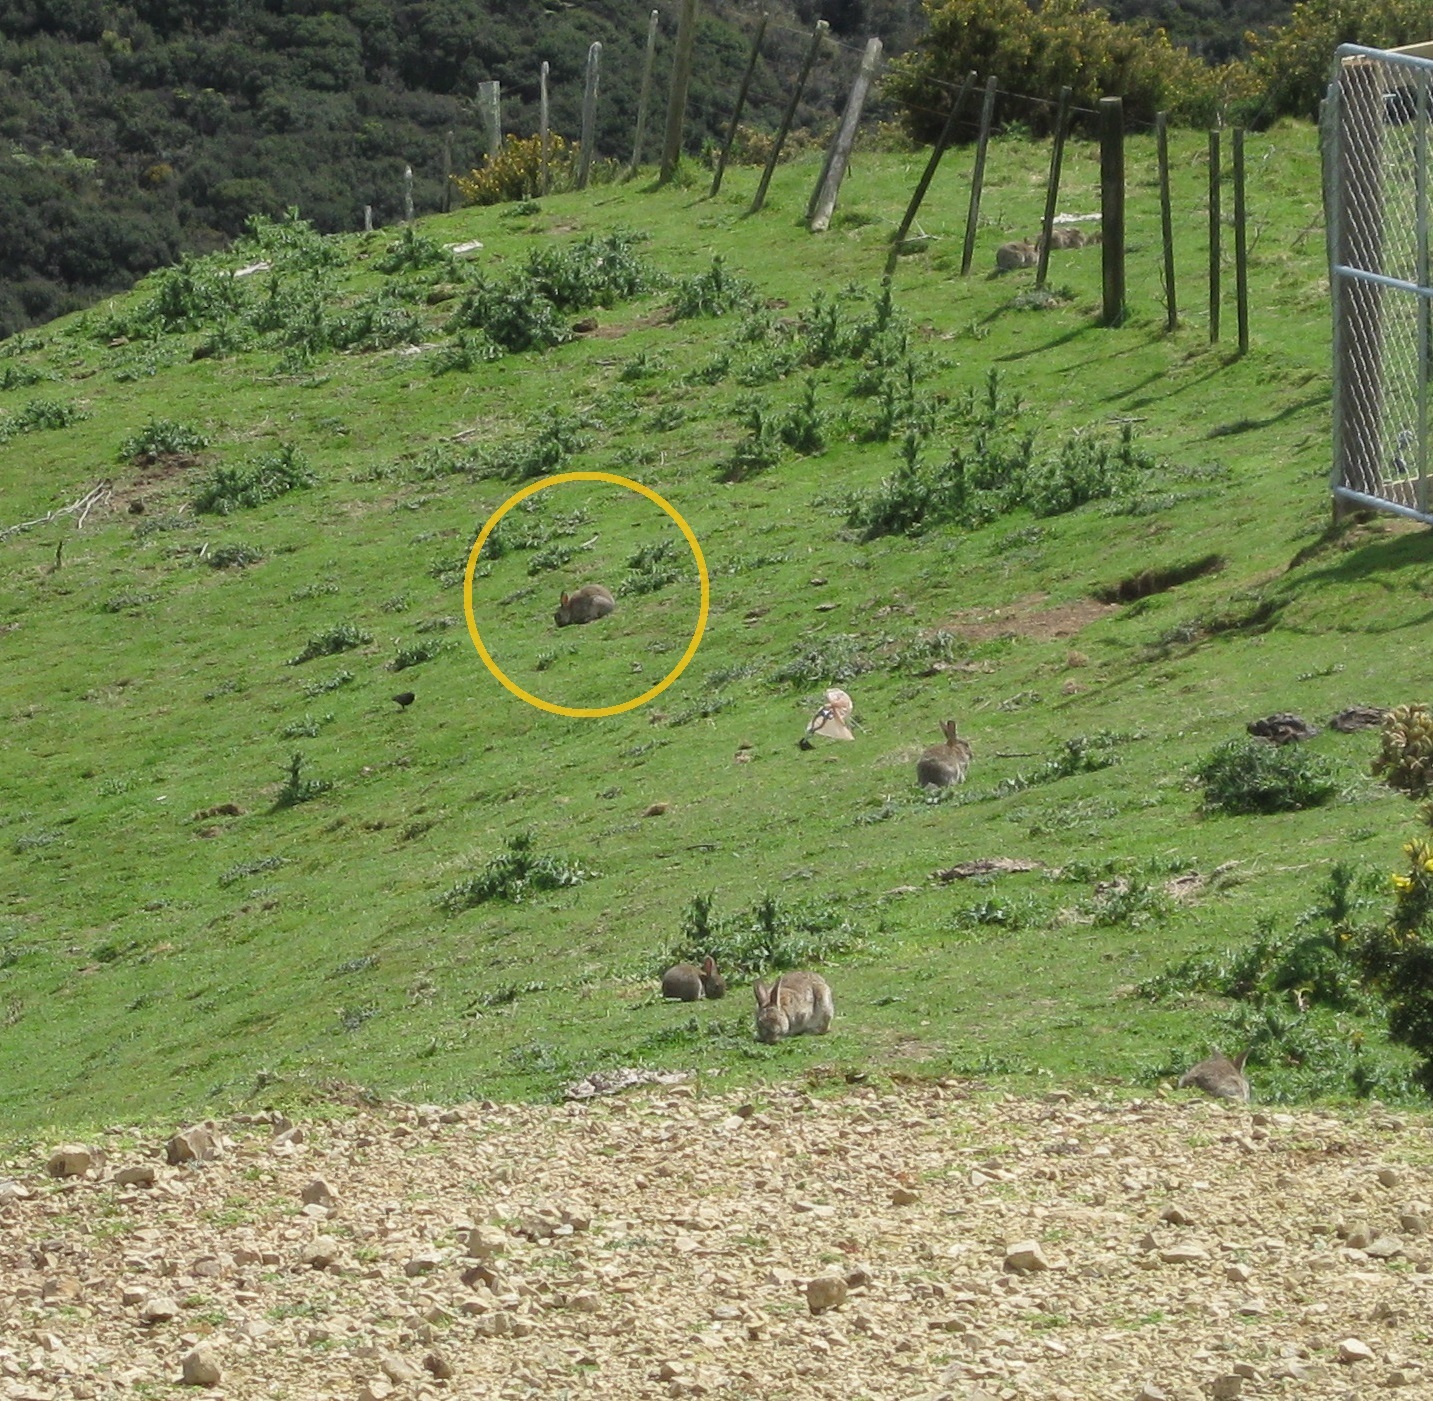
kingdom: Animalia
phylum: Chordata
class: Mammalia
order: Lagomorpha
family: Leporidae
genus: Oryctolagus
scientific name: Oryctolagus cuniculus
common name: European rabbit
